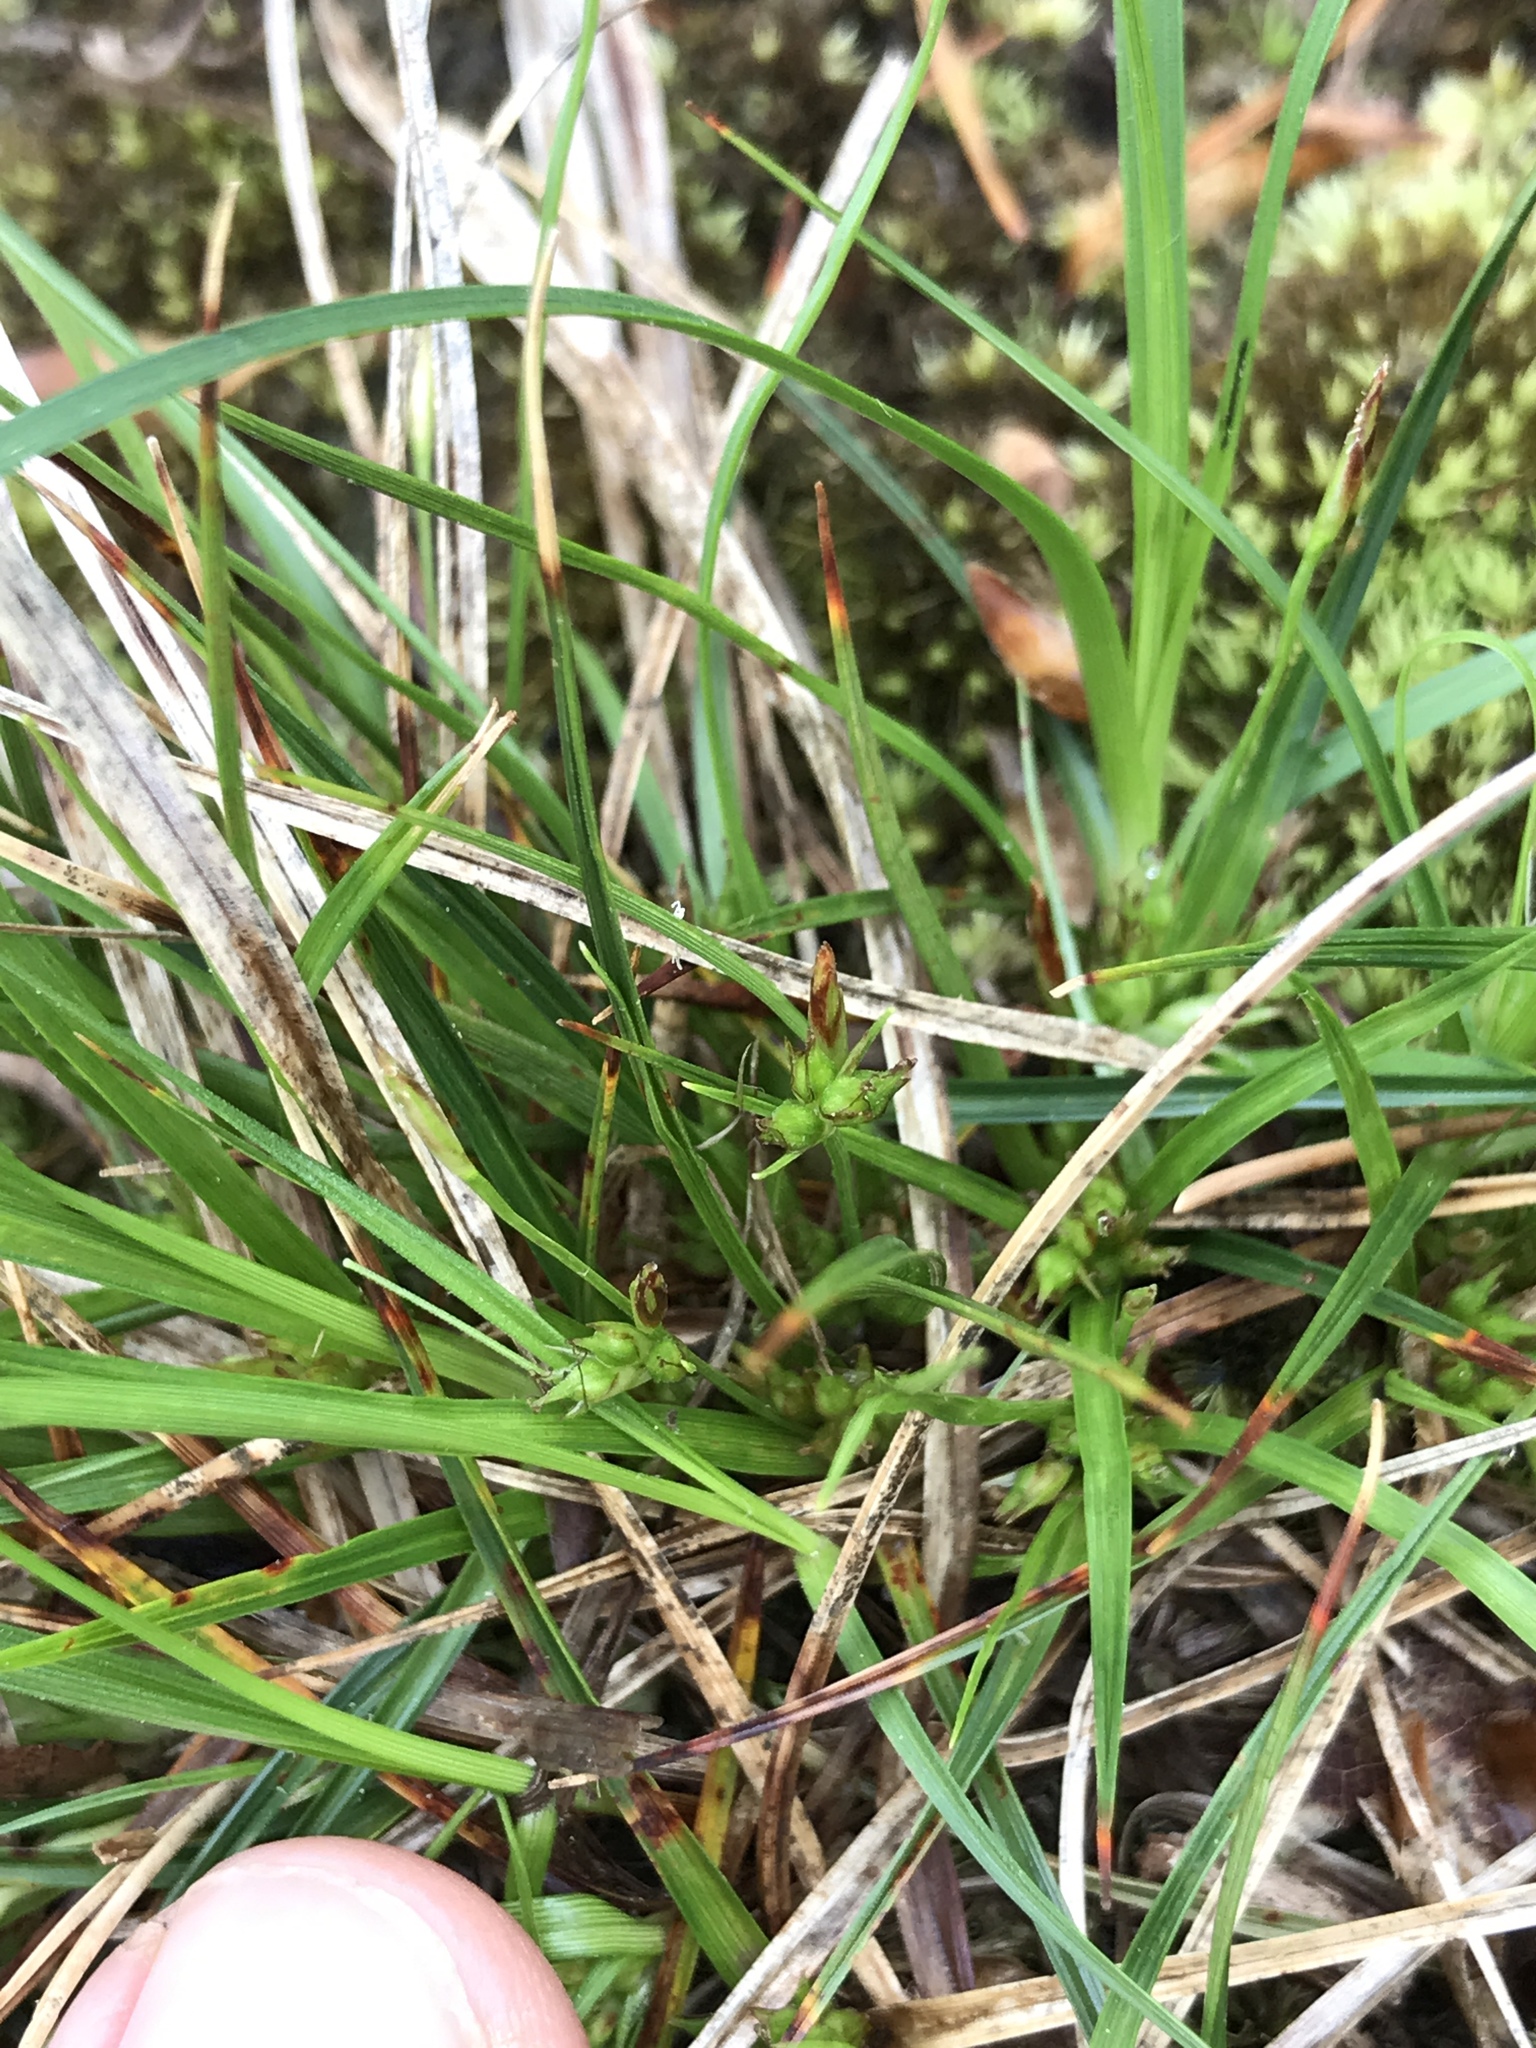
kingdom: Plantae
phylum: Tracheophyta
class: Liliopsida
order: Poales
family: Cyperaceae
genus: Carex
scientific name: Carex tonsa
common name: Bald sedge
